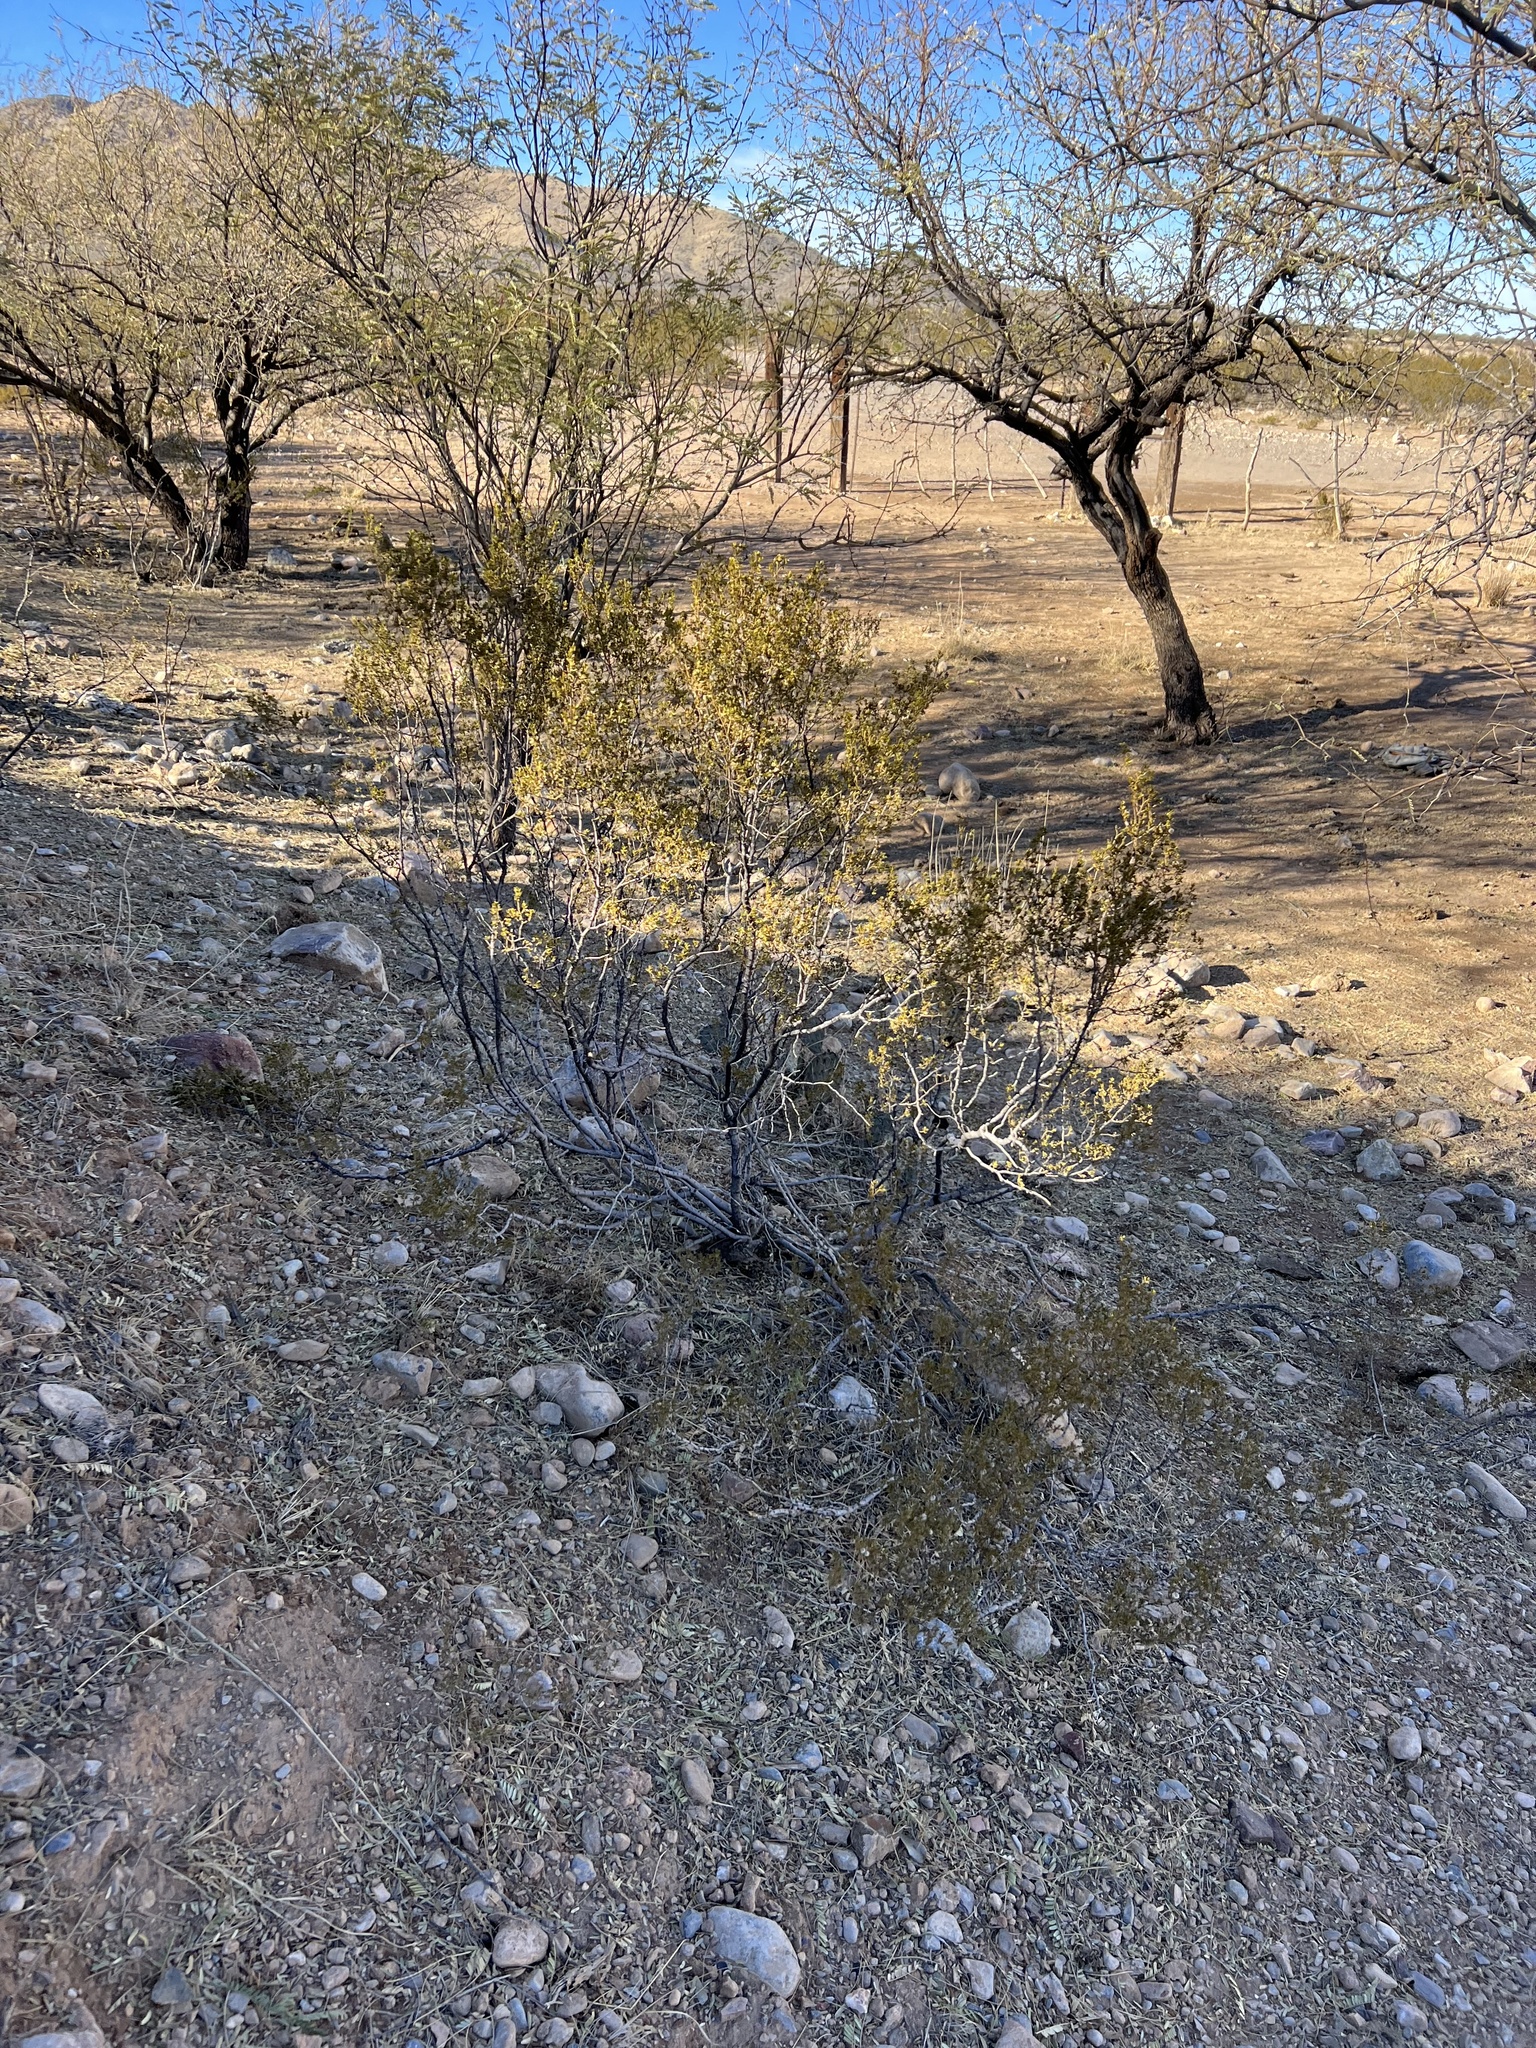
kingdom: Plantae
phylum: Tracheophyta
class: Magnoliopsida
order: Zygophyllales
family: Zygophyllaceae
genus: Larrea
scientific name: Larrea tridentata
